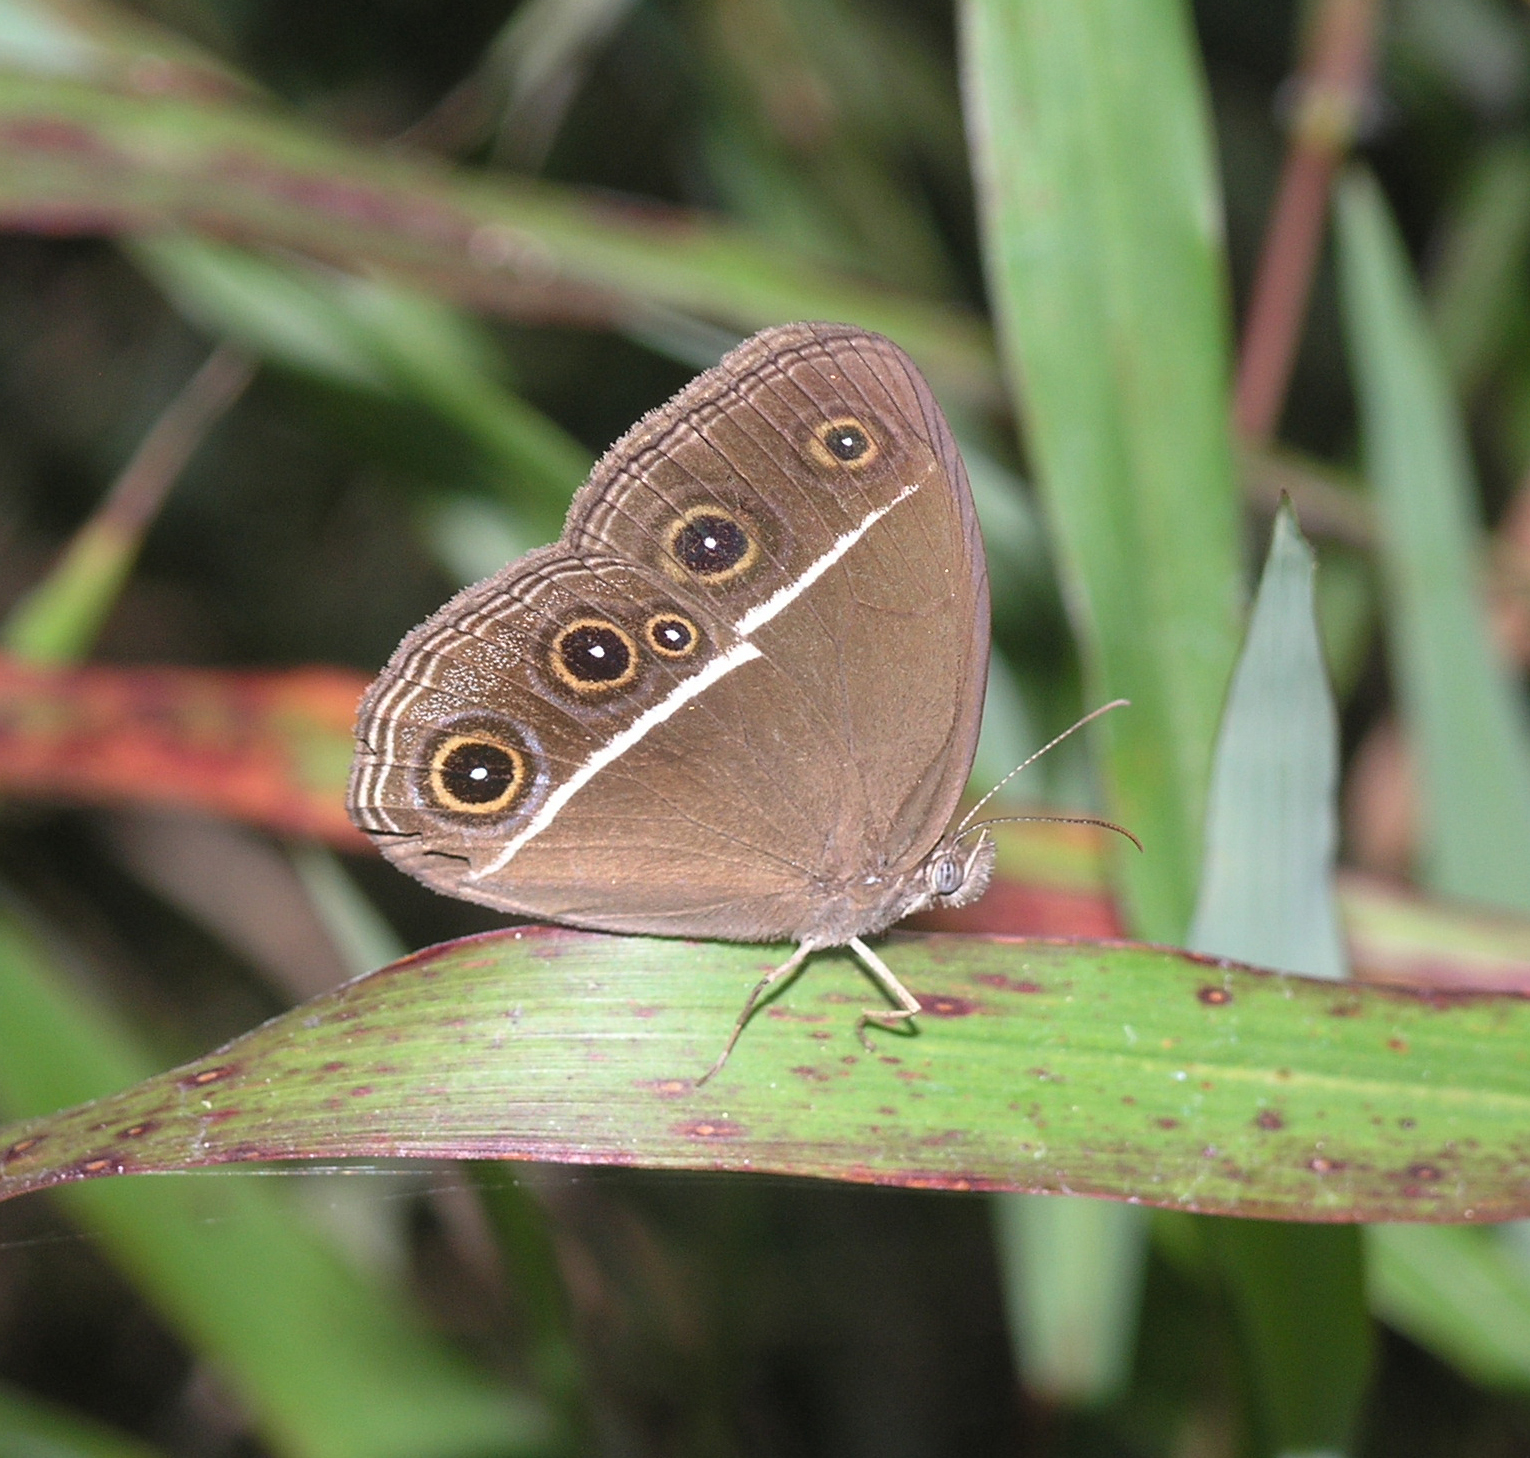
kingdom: Animalia
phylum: Arthropoda
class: Insecta
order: Lepidoptera
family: Nymphalidae
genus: Orsotriaena
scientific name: Orsotriaena medus
